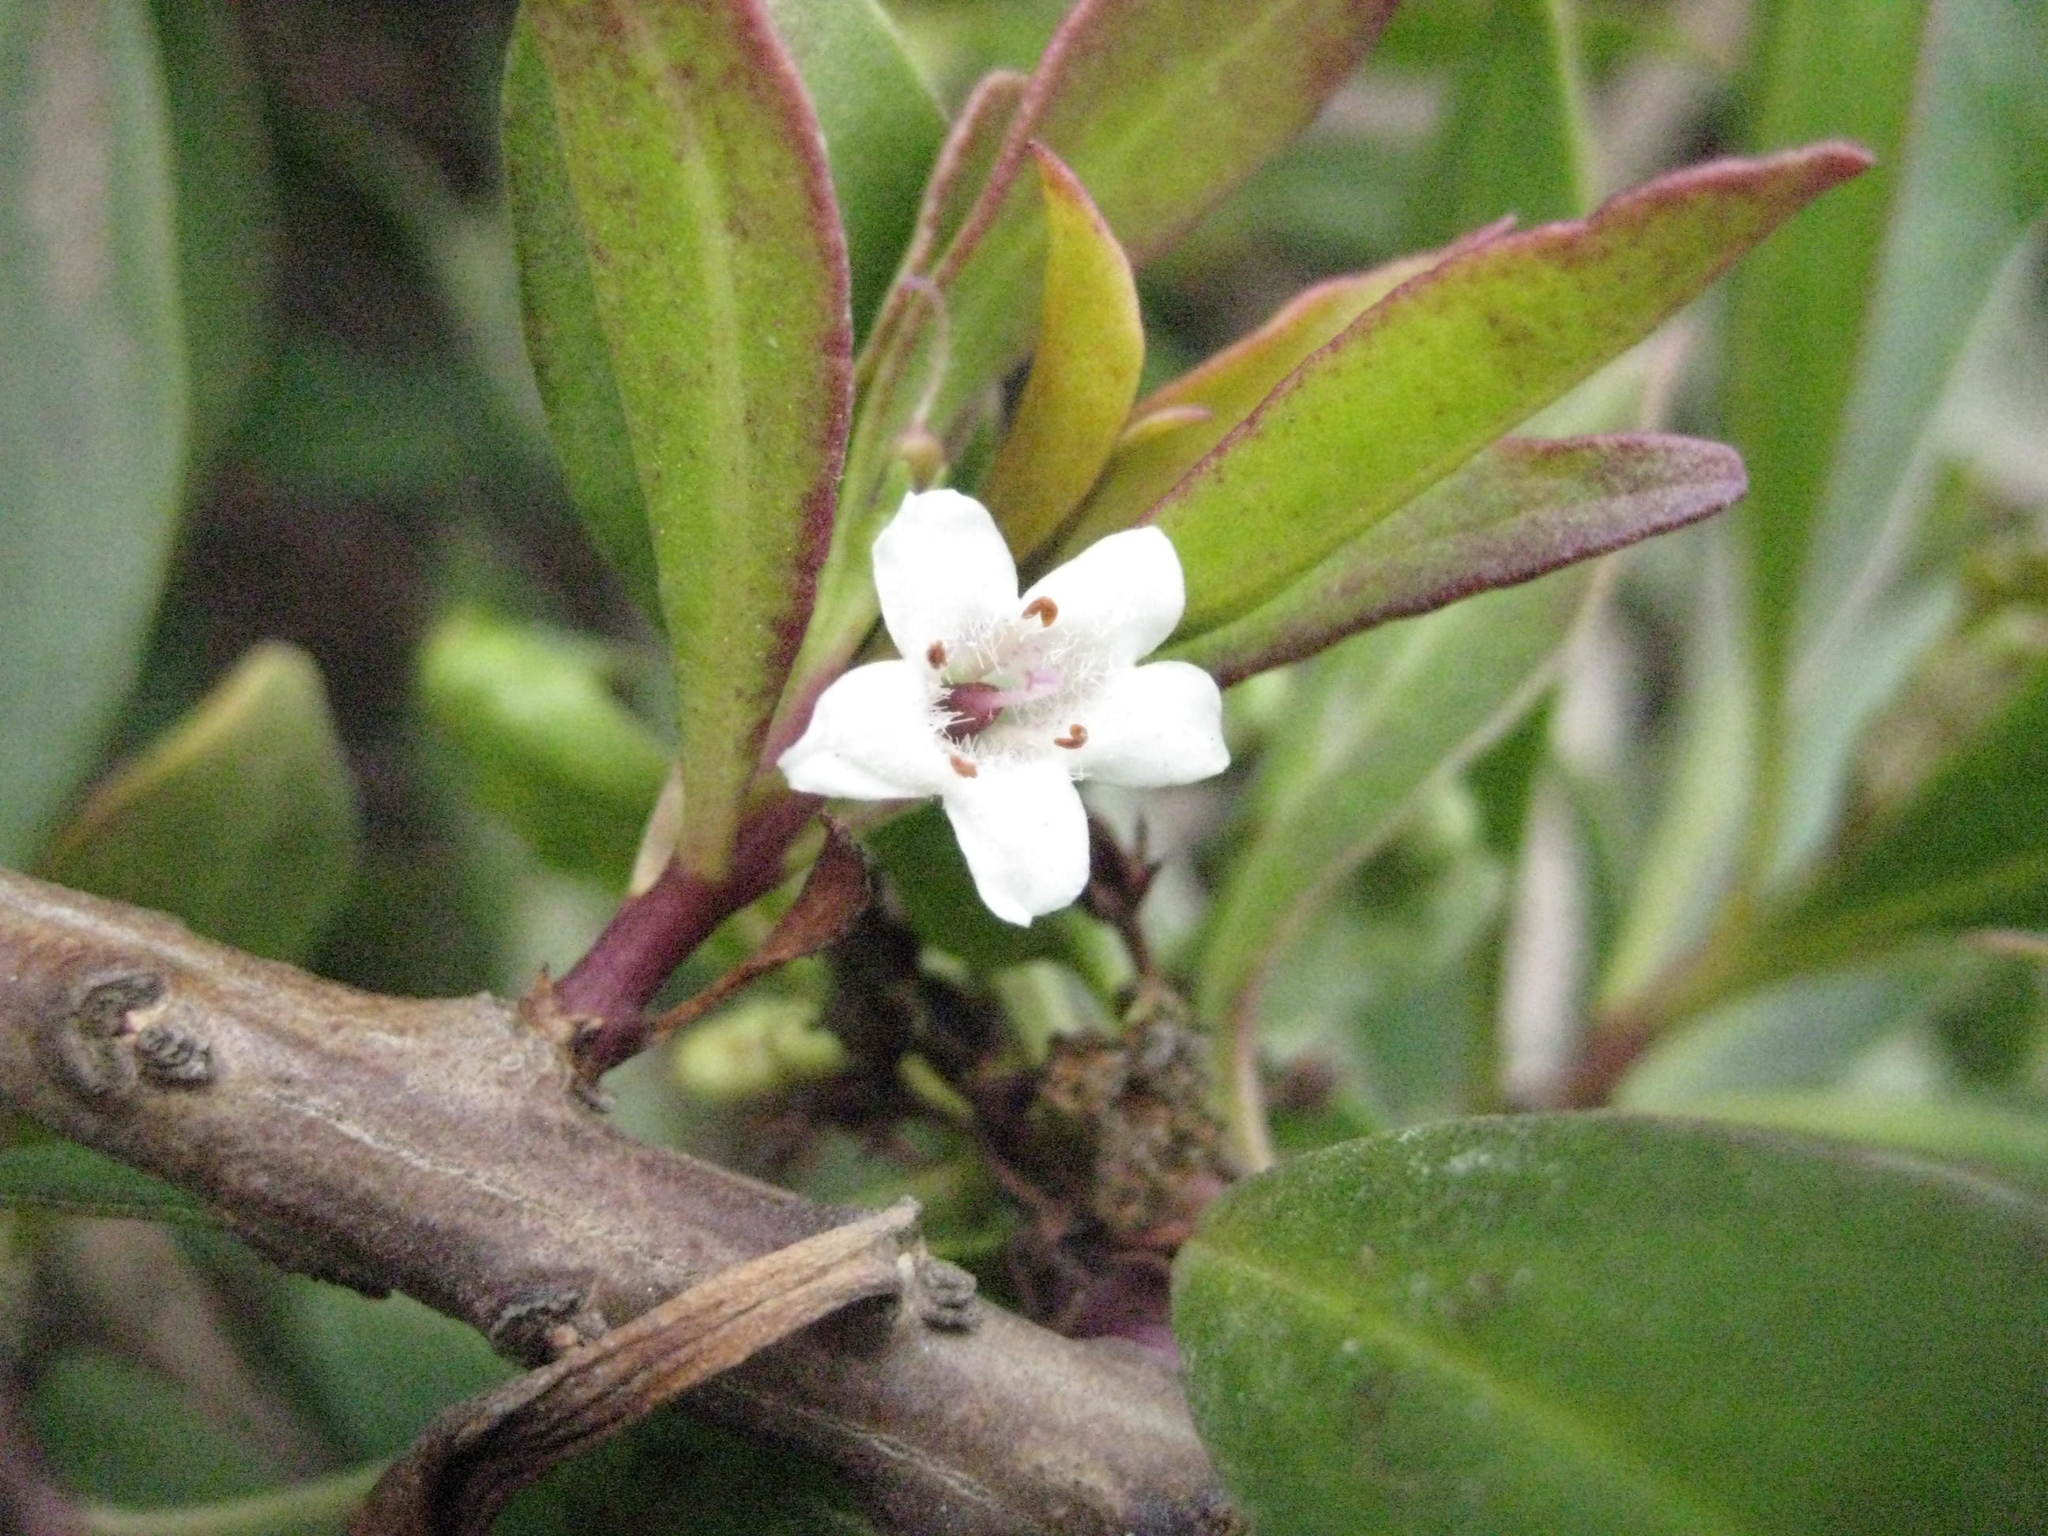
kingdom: Plantae
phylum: Tracheophyta
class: Magnoliopsida
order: Lamiales
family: Scrophulariaceae
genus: Myoporum
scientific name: Myoporum laetum
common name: Ngaio tree
